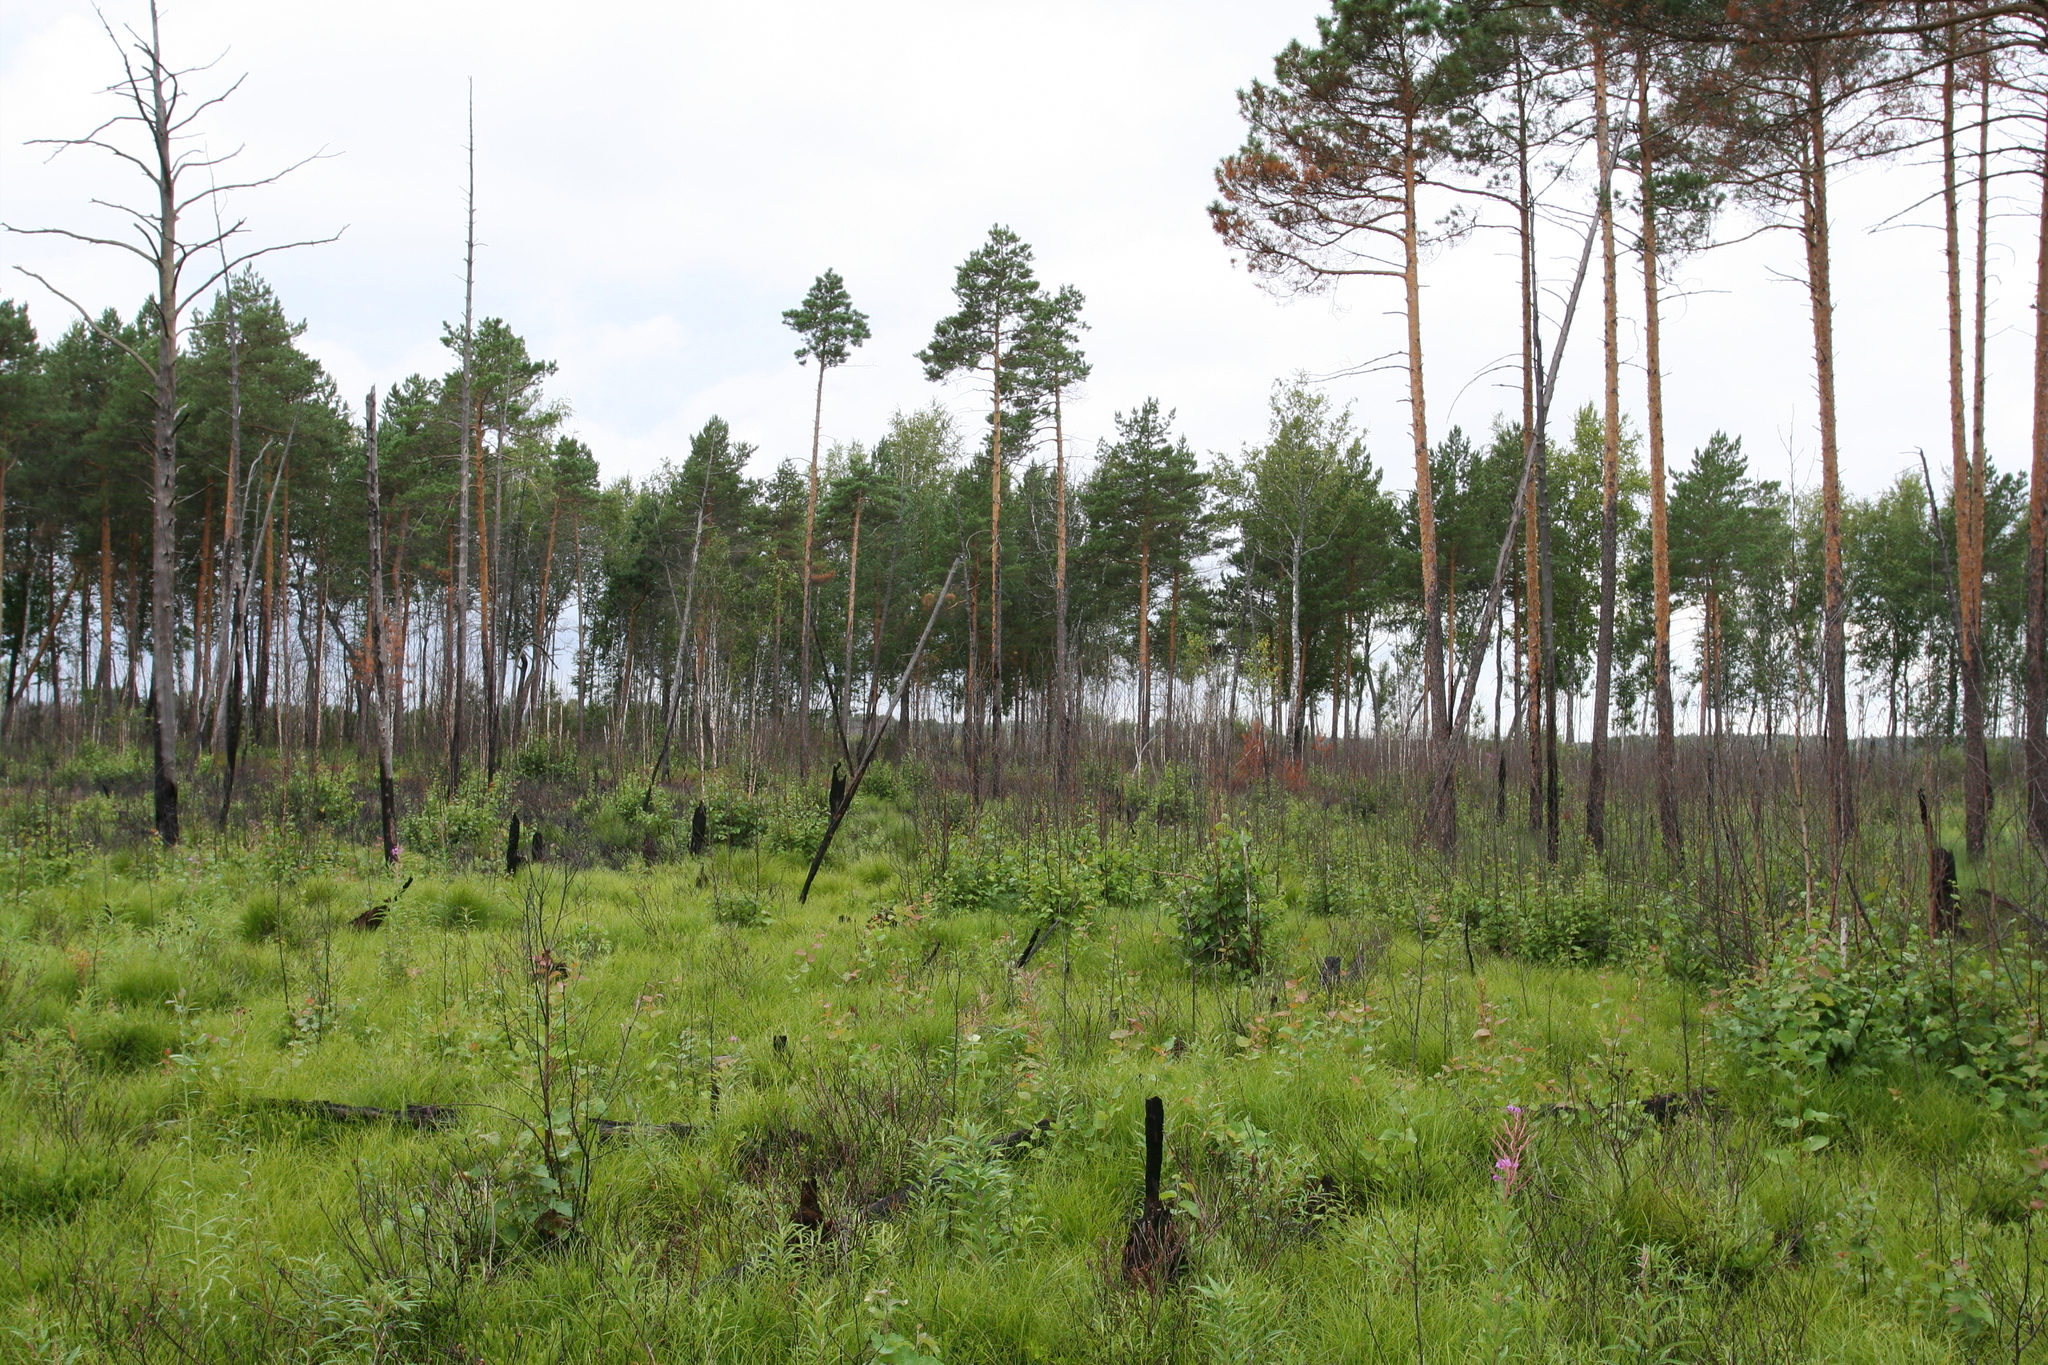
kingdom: Plantae
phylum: Tracheophyta
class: Pinopsida
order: Pinales
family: Pinaceae
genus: Pinus
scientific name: Pinus sylvestris
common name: Scots pine
